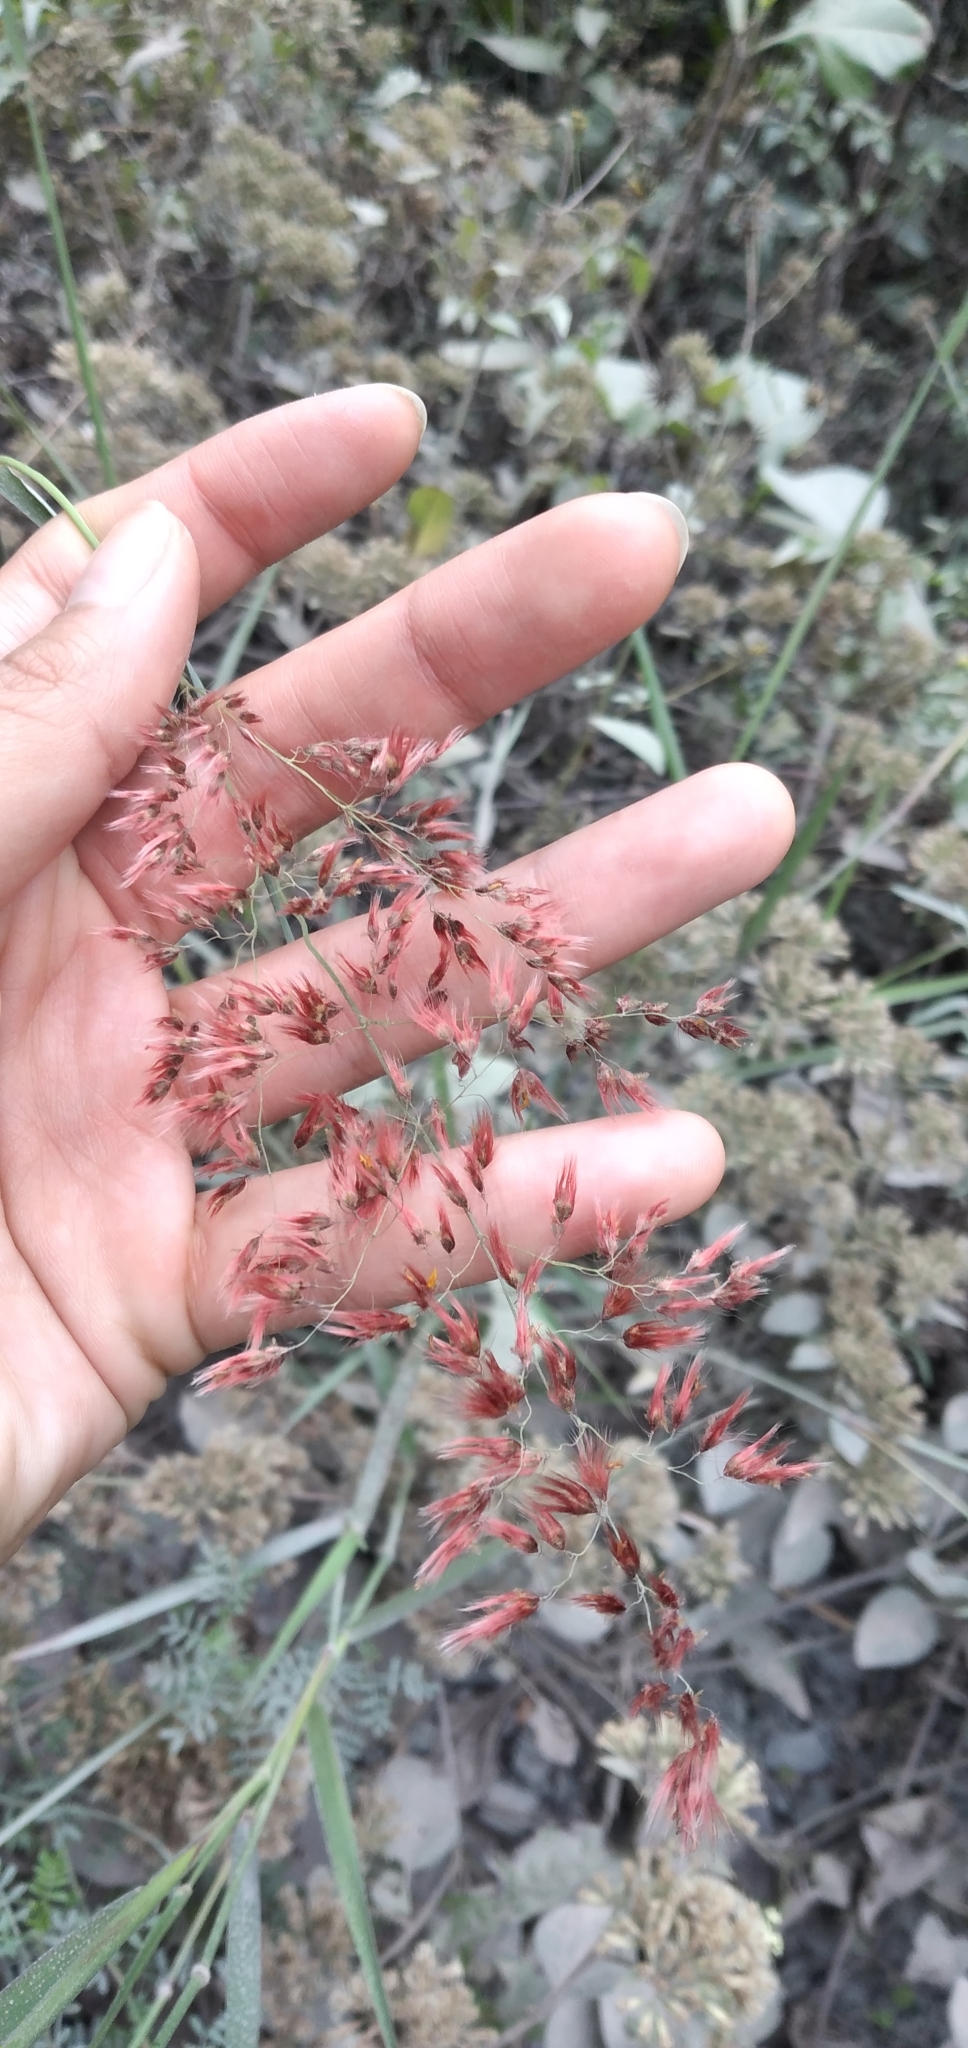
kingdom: Plantae
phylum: Tracheophyta
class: Liliopsida
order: Poales
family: Poaceae
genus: Melinis
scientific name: Melinis repens
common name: Rose natal grass
